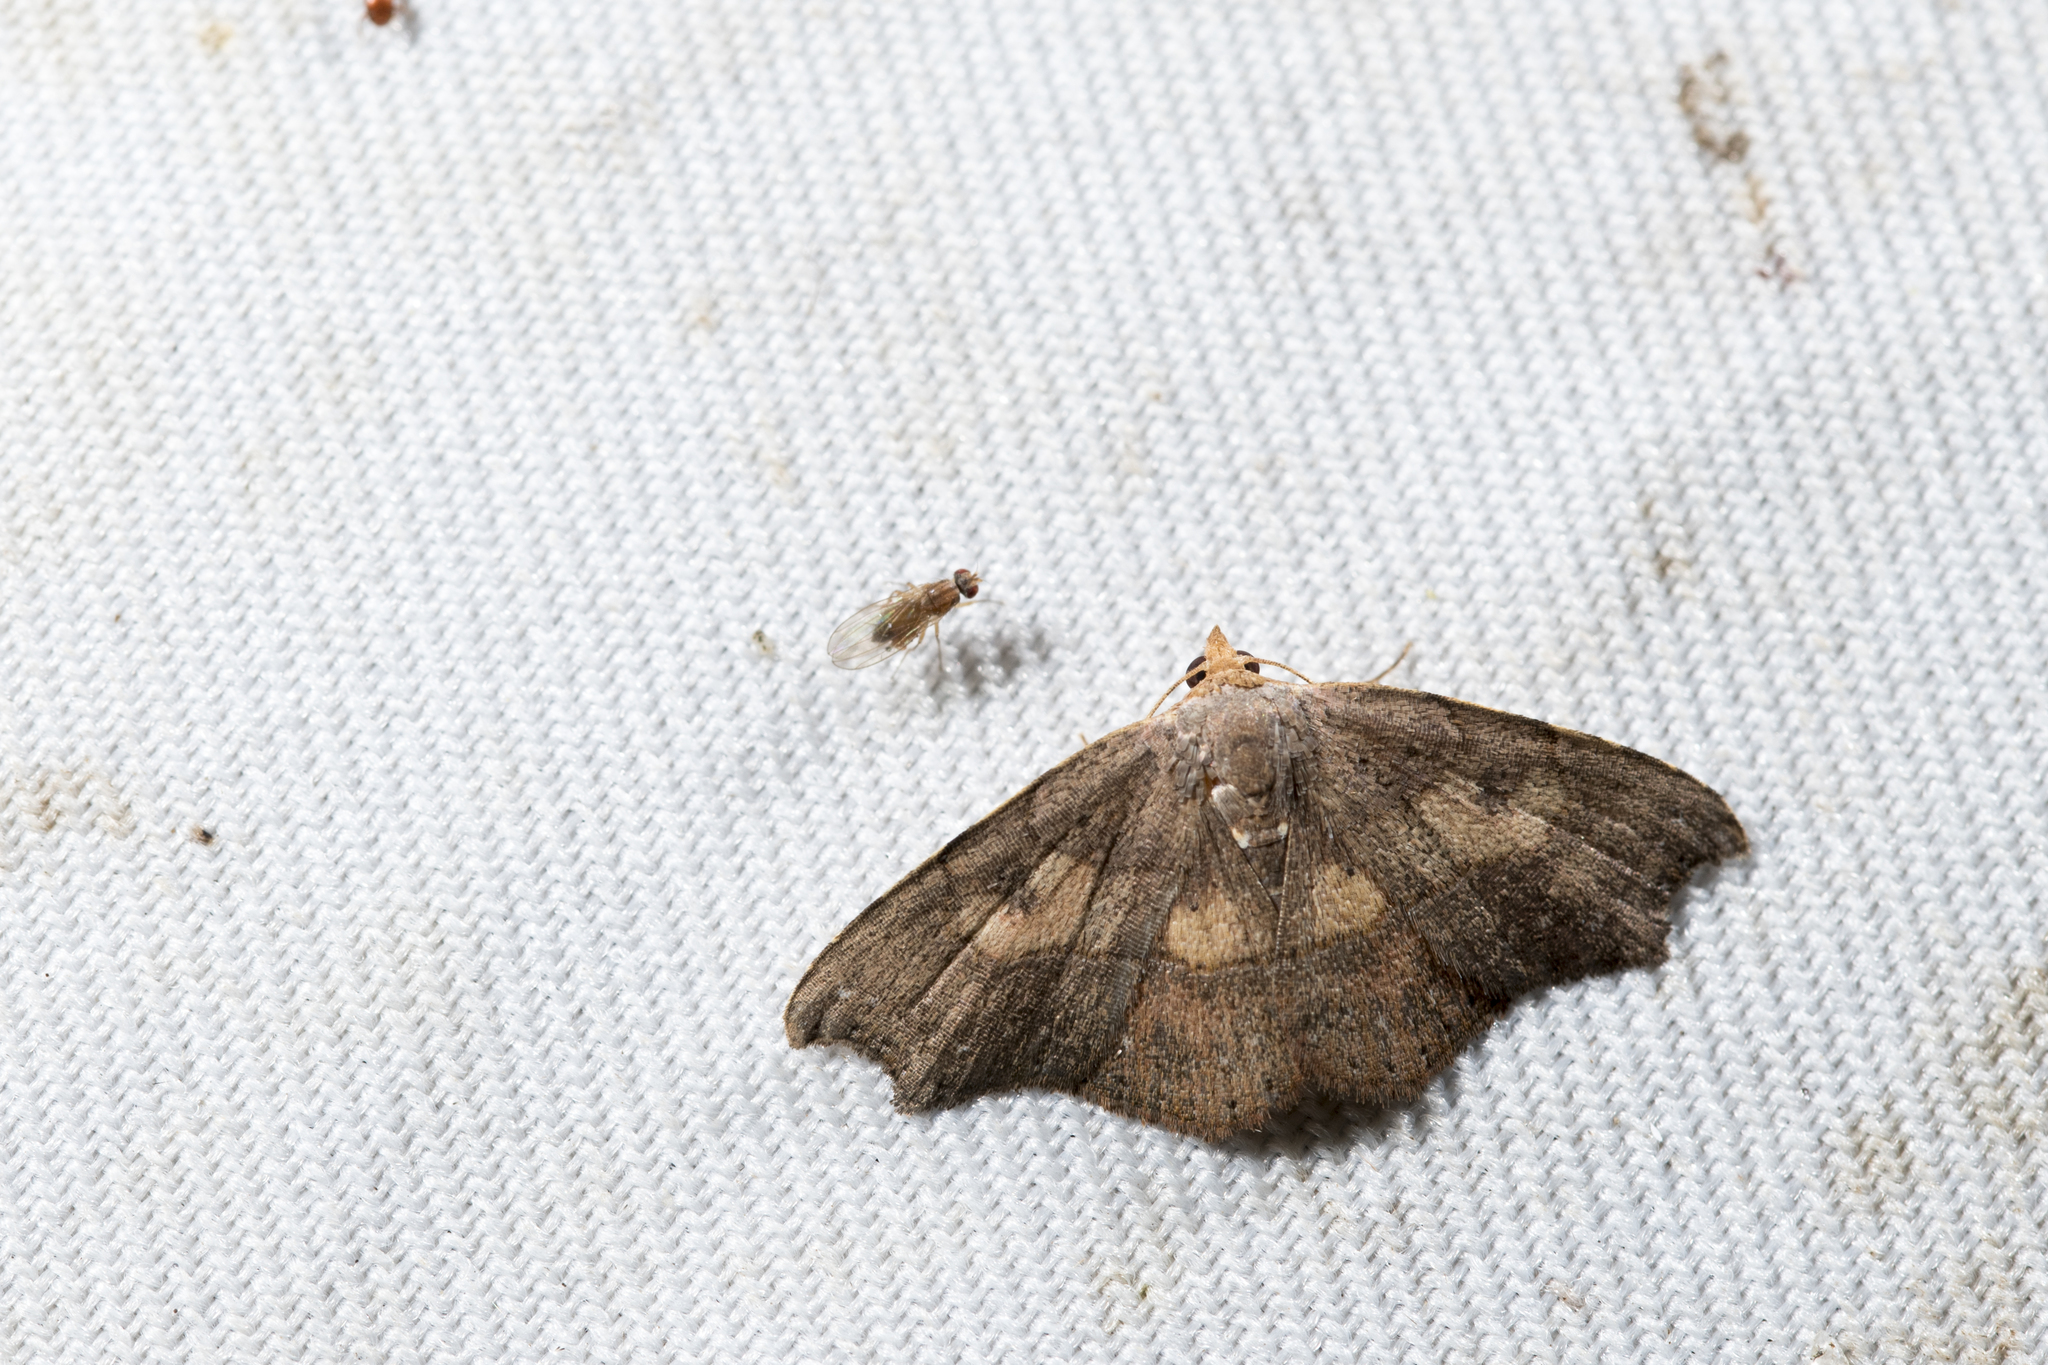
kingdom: Animalia
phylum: Arthropoda
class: Insecta
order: Lepidoptera
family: Erebidae
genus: Artaxa
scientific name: Artaxa distracta
